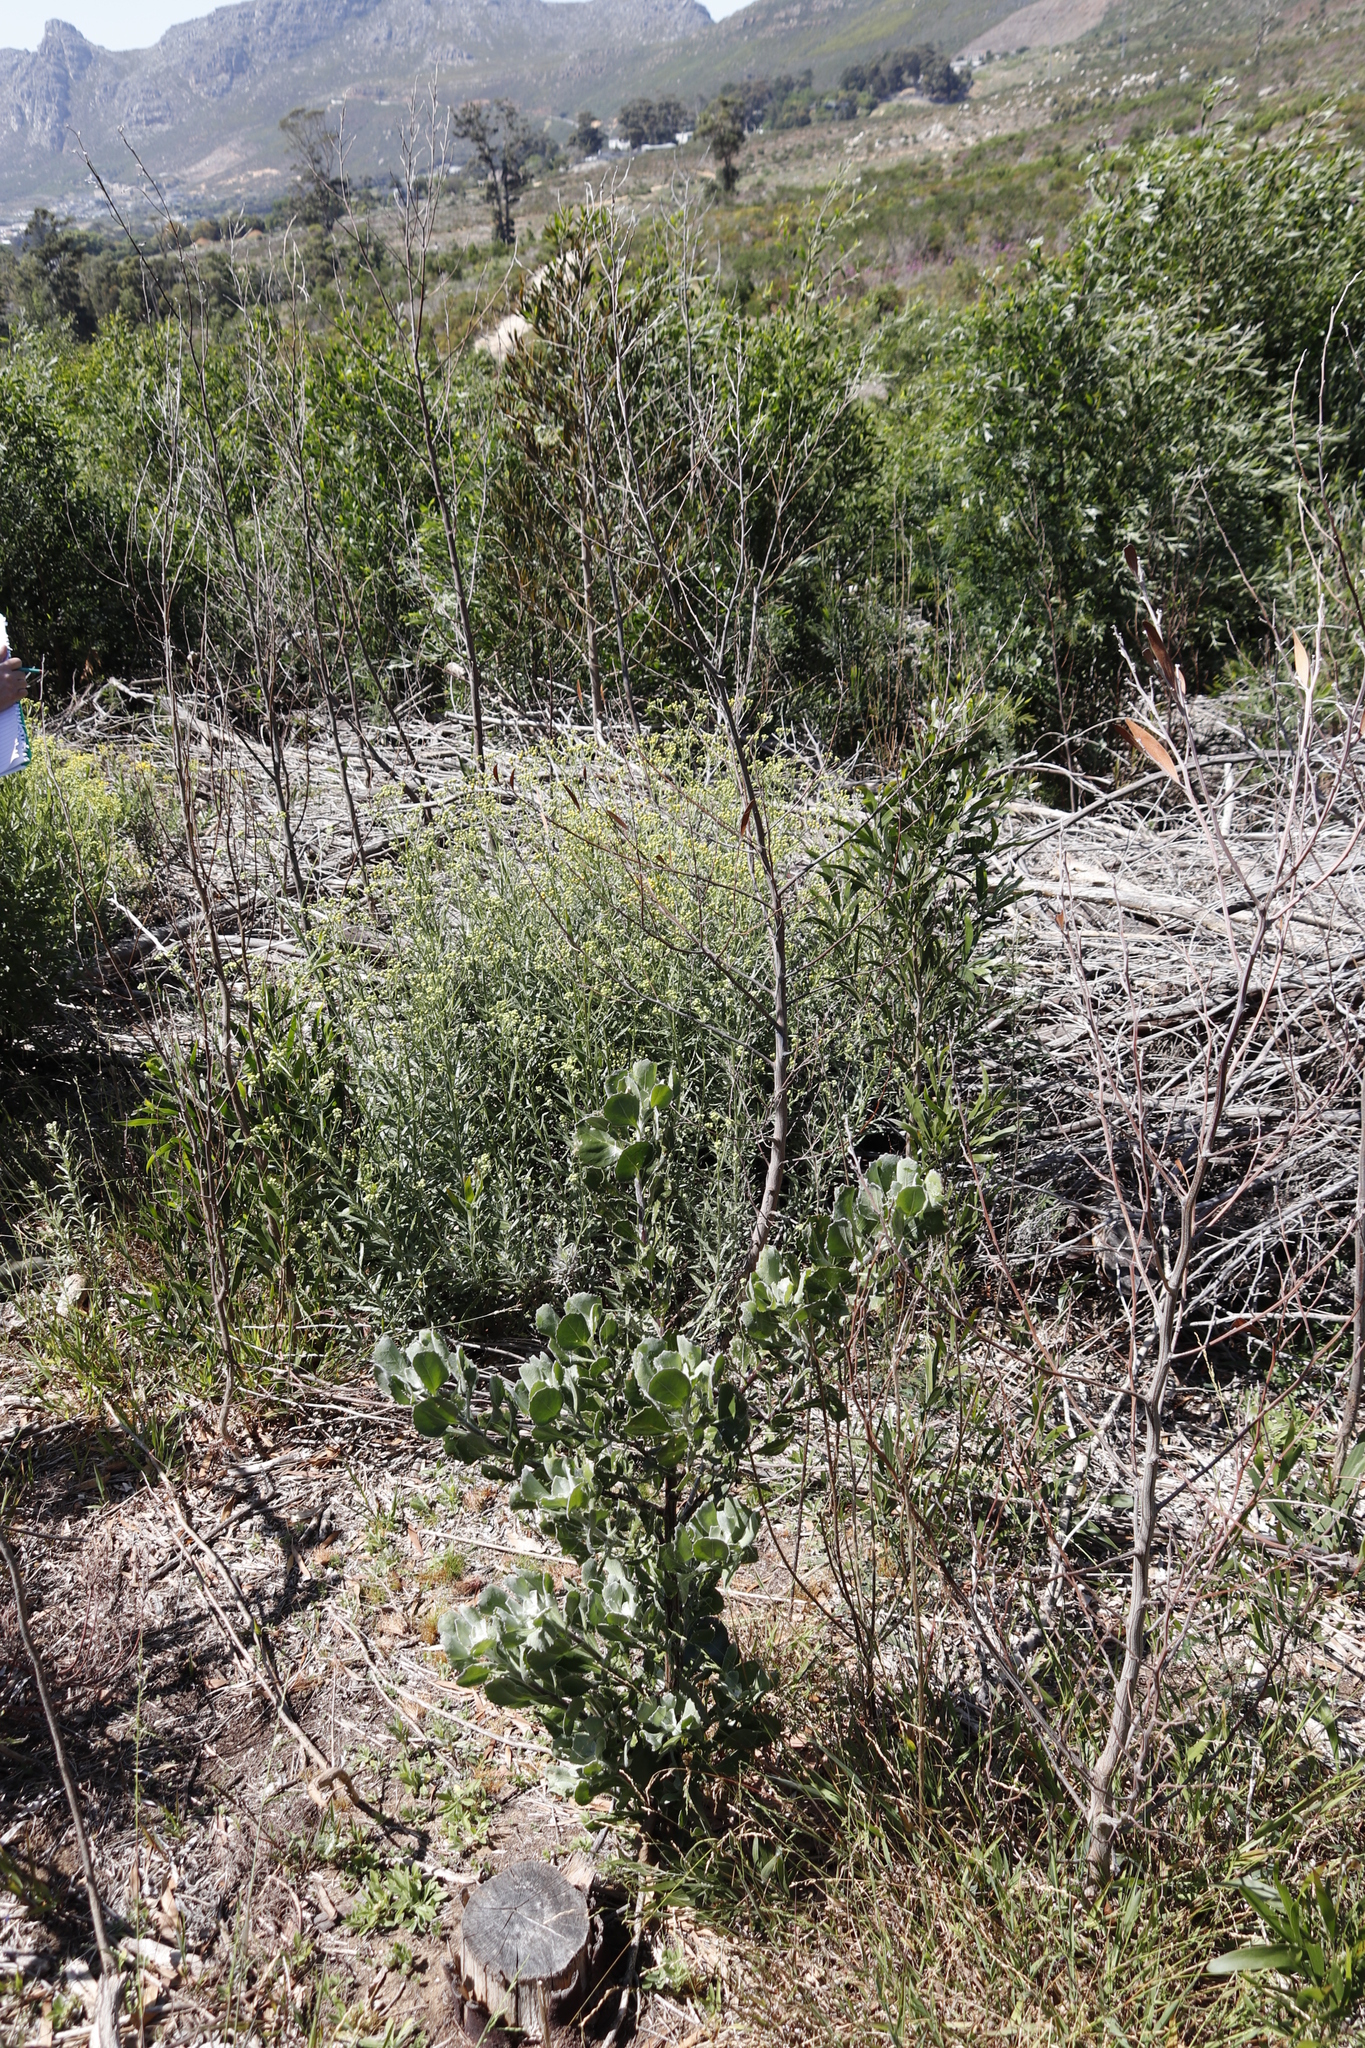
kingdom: Plantae
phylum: Tracheophyta
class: Magnoliopsida
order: Asterales
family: Asteraceae
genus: Senecio
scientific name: Senecio pterophorus
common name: Shoddy ragwort
